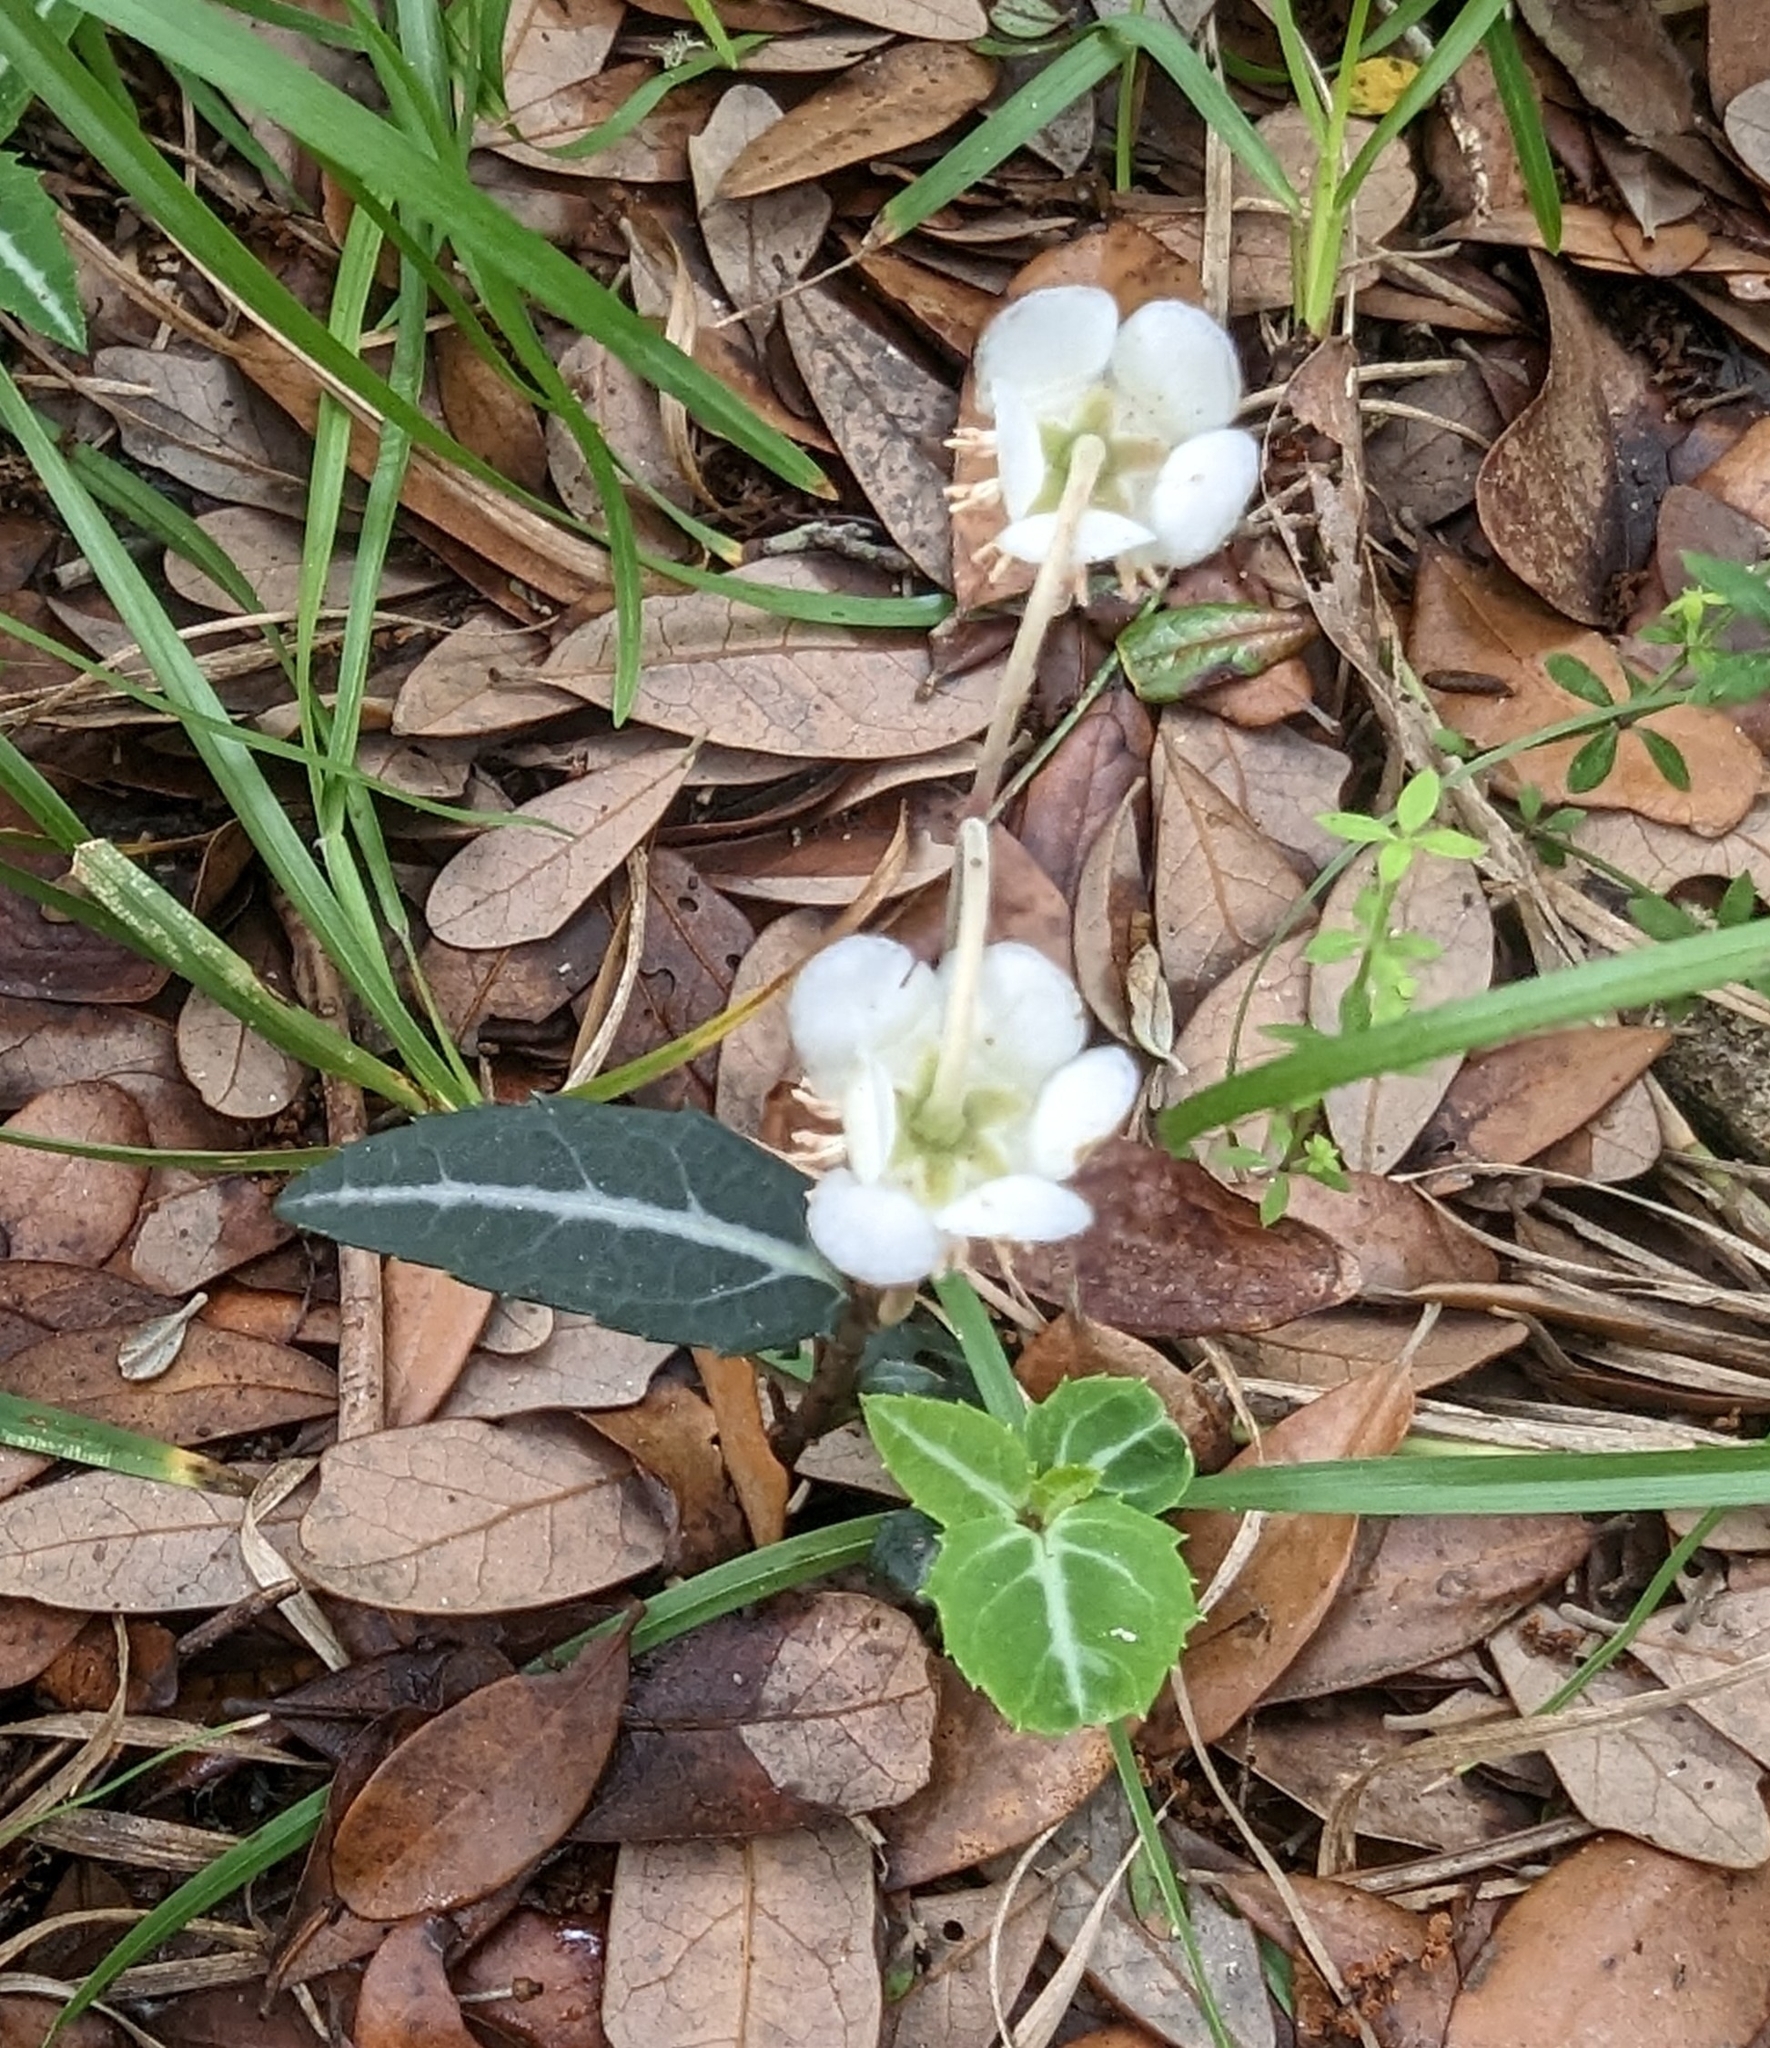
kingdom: Plantae
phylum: Tracheophyta
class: Magnoliopsida
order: Ericales
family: Ericaceae
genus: Chimaphila
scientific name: Chimaphila maculata
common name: Spotted pipsissewa
